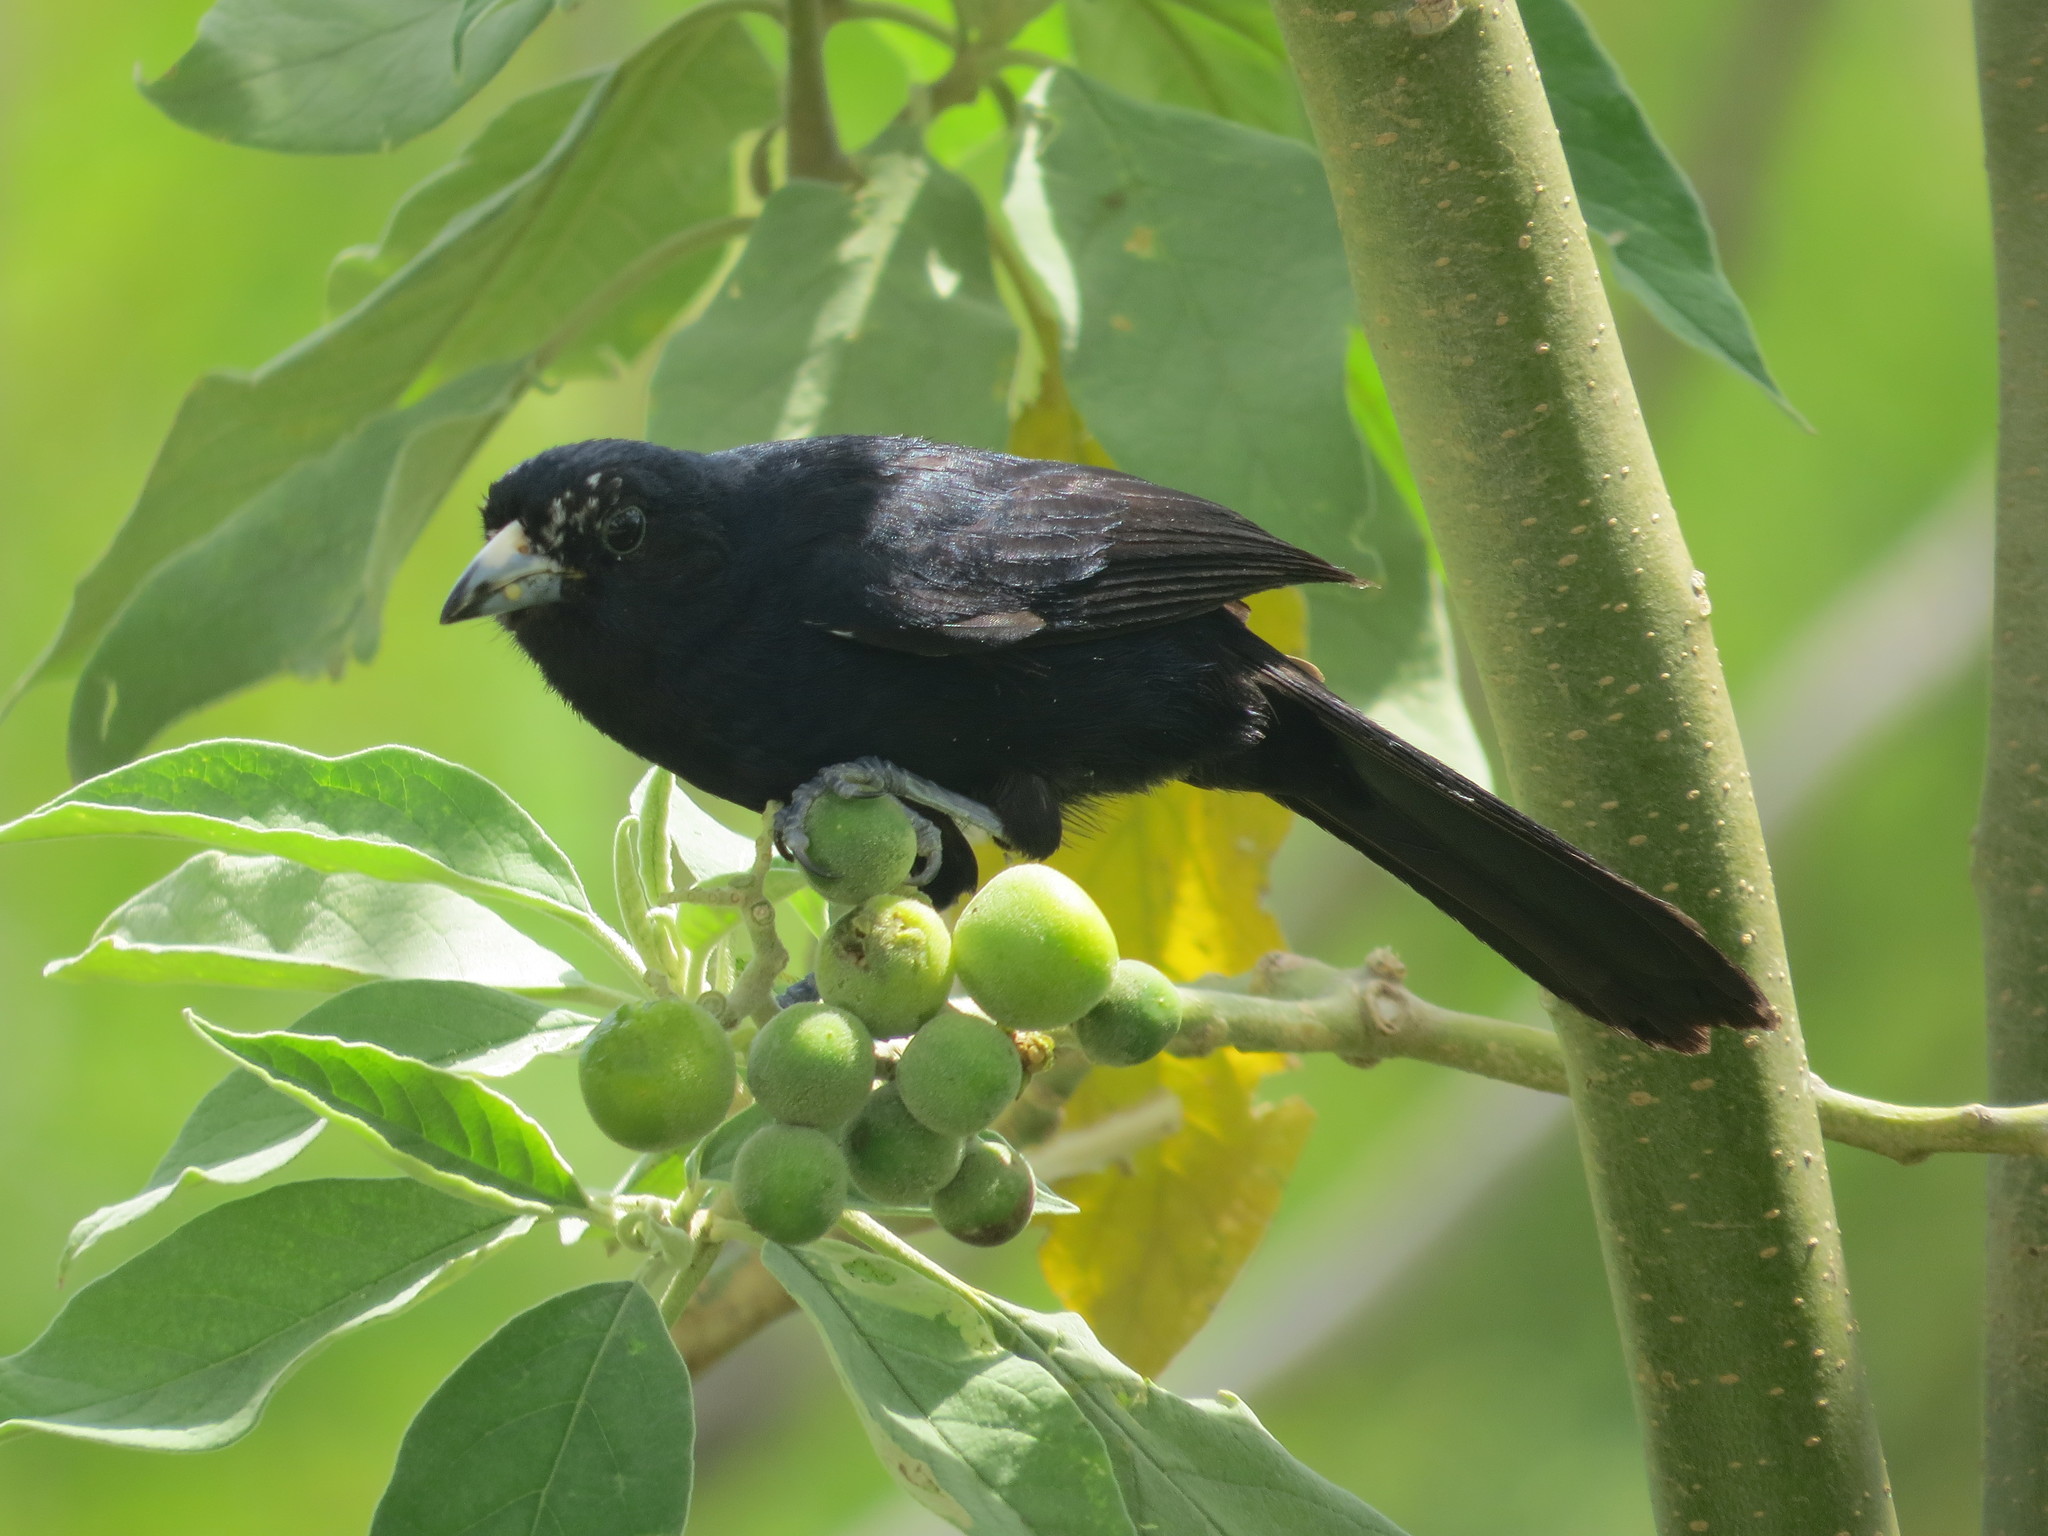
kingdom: Animalia
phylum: Chordata
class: Aves
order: Passeriformes
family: Thraupidae
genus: Tachyphonus
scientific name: Tachyphonus rufus
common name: White-lined tanager
